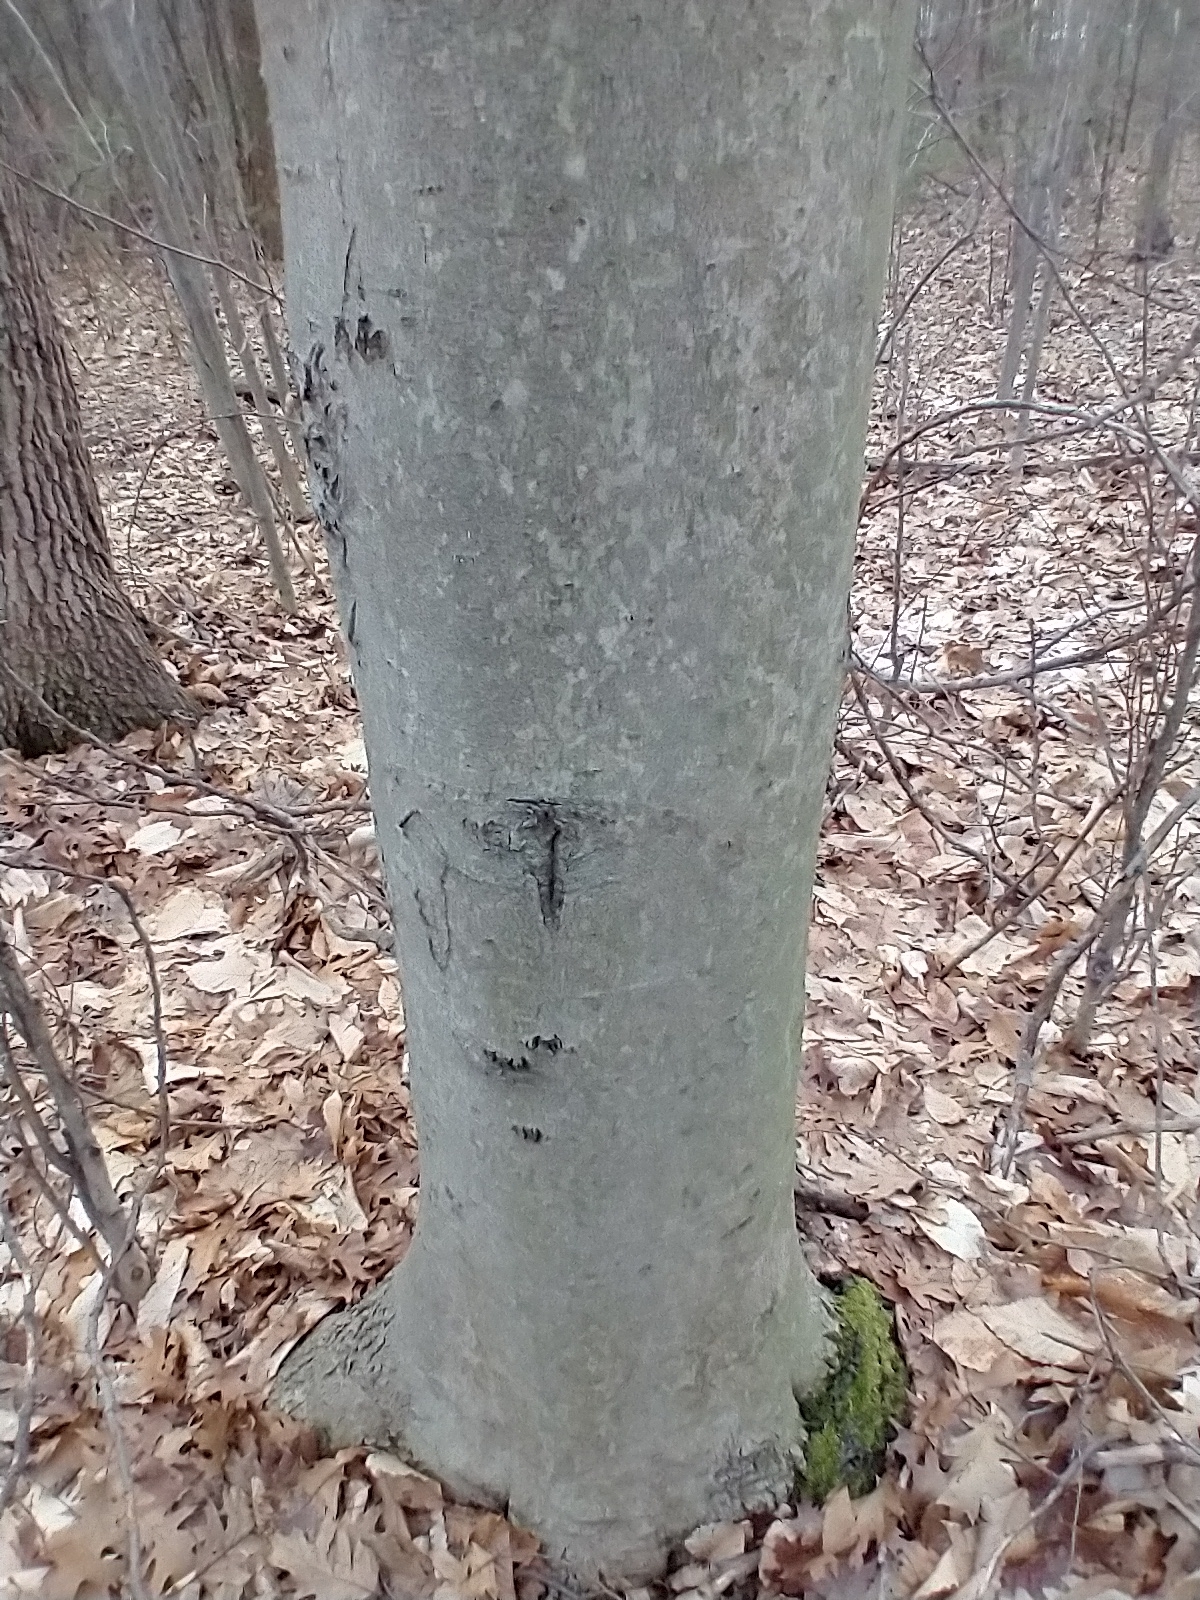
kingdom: Plantae
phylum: Tracheophyta
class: Magnoliopsida
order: Fagales
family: Fagaceae
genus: Fagus
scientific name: Fagus grandifolia
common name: American beech
